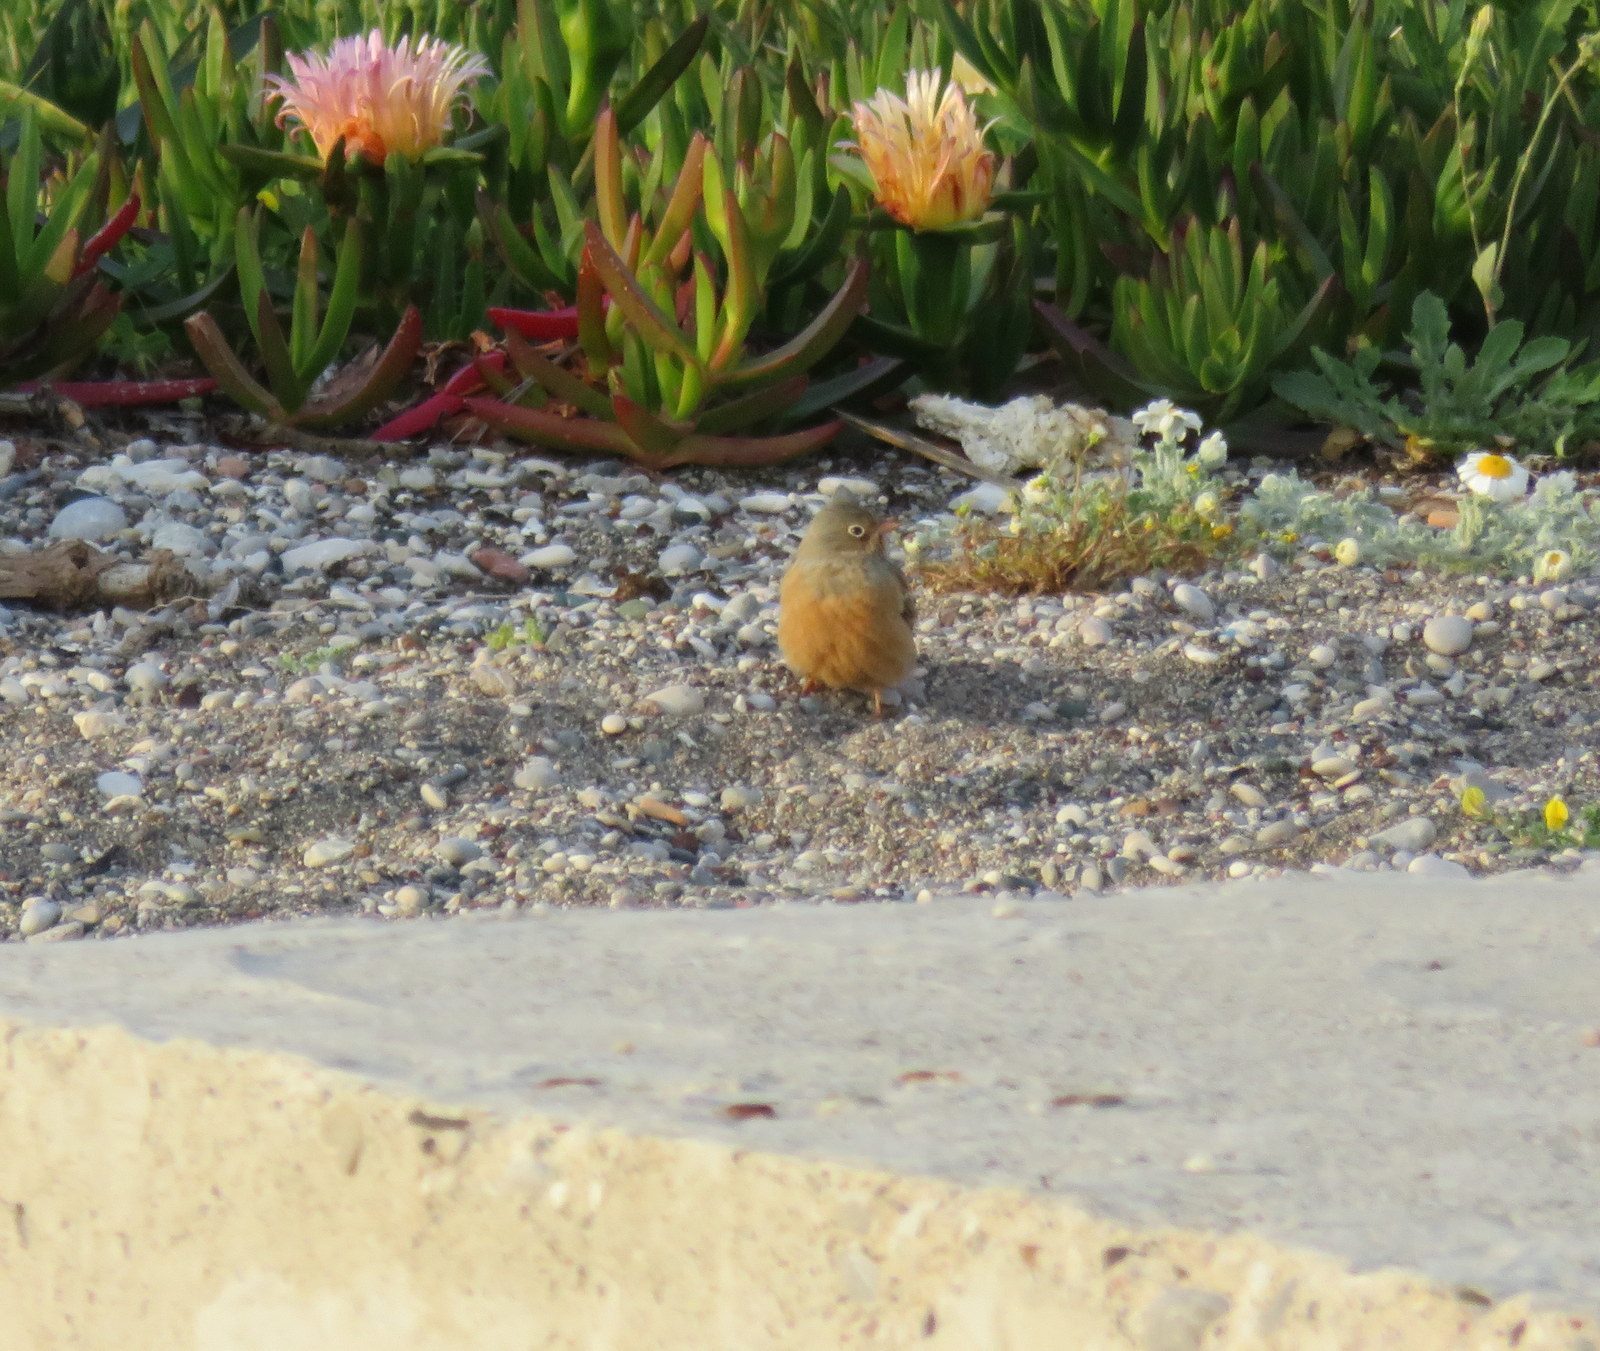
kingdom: Animalia
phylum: Chordata
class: Aves
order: Passeriformes
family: Emberizidae
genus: Emberiza
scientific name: Emberiza caesia
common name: Cretzschmar's bunting
